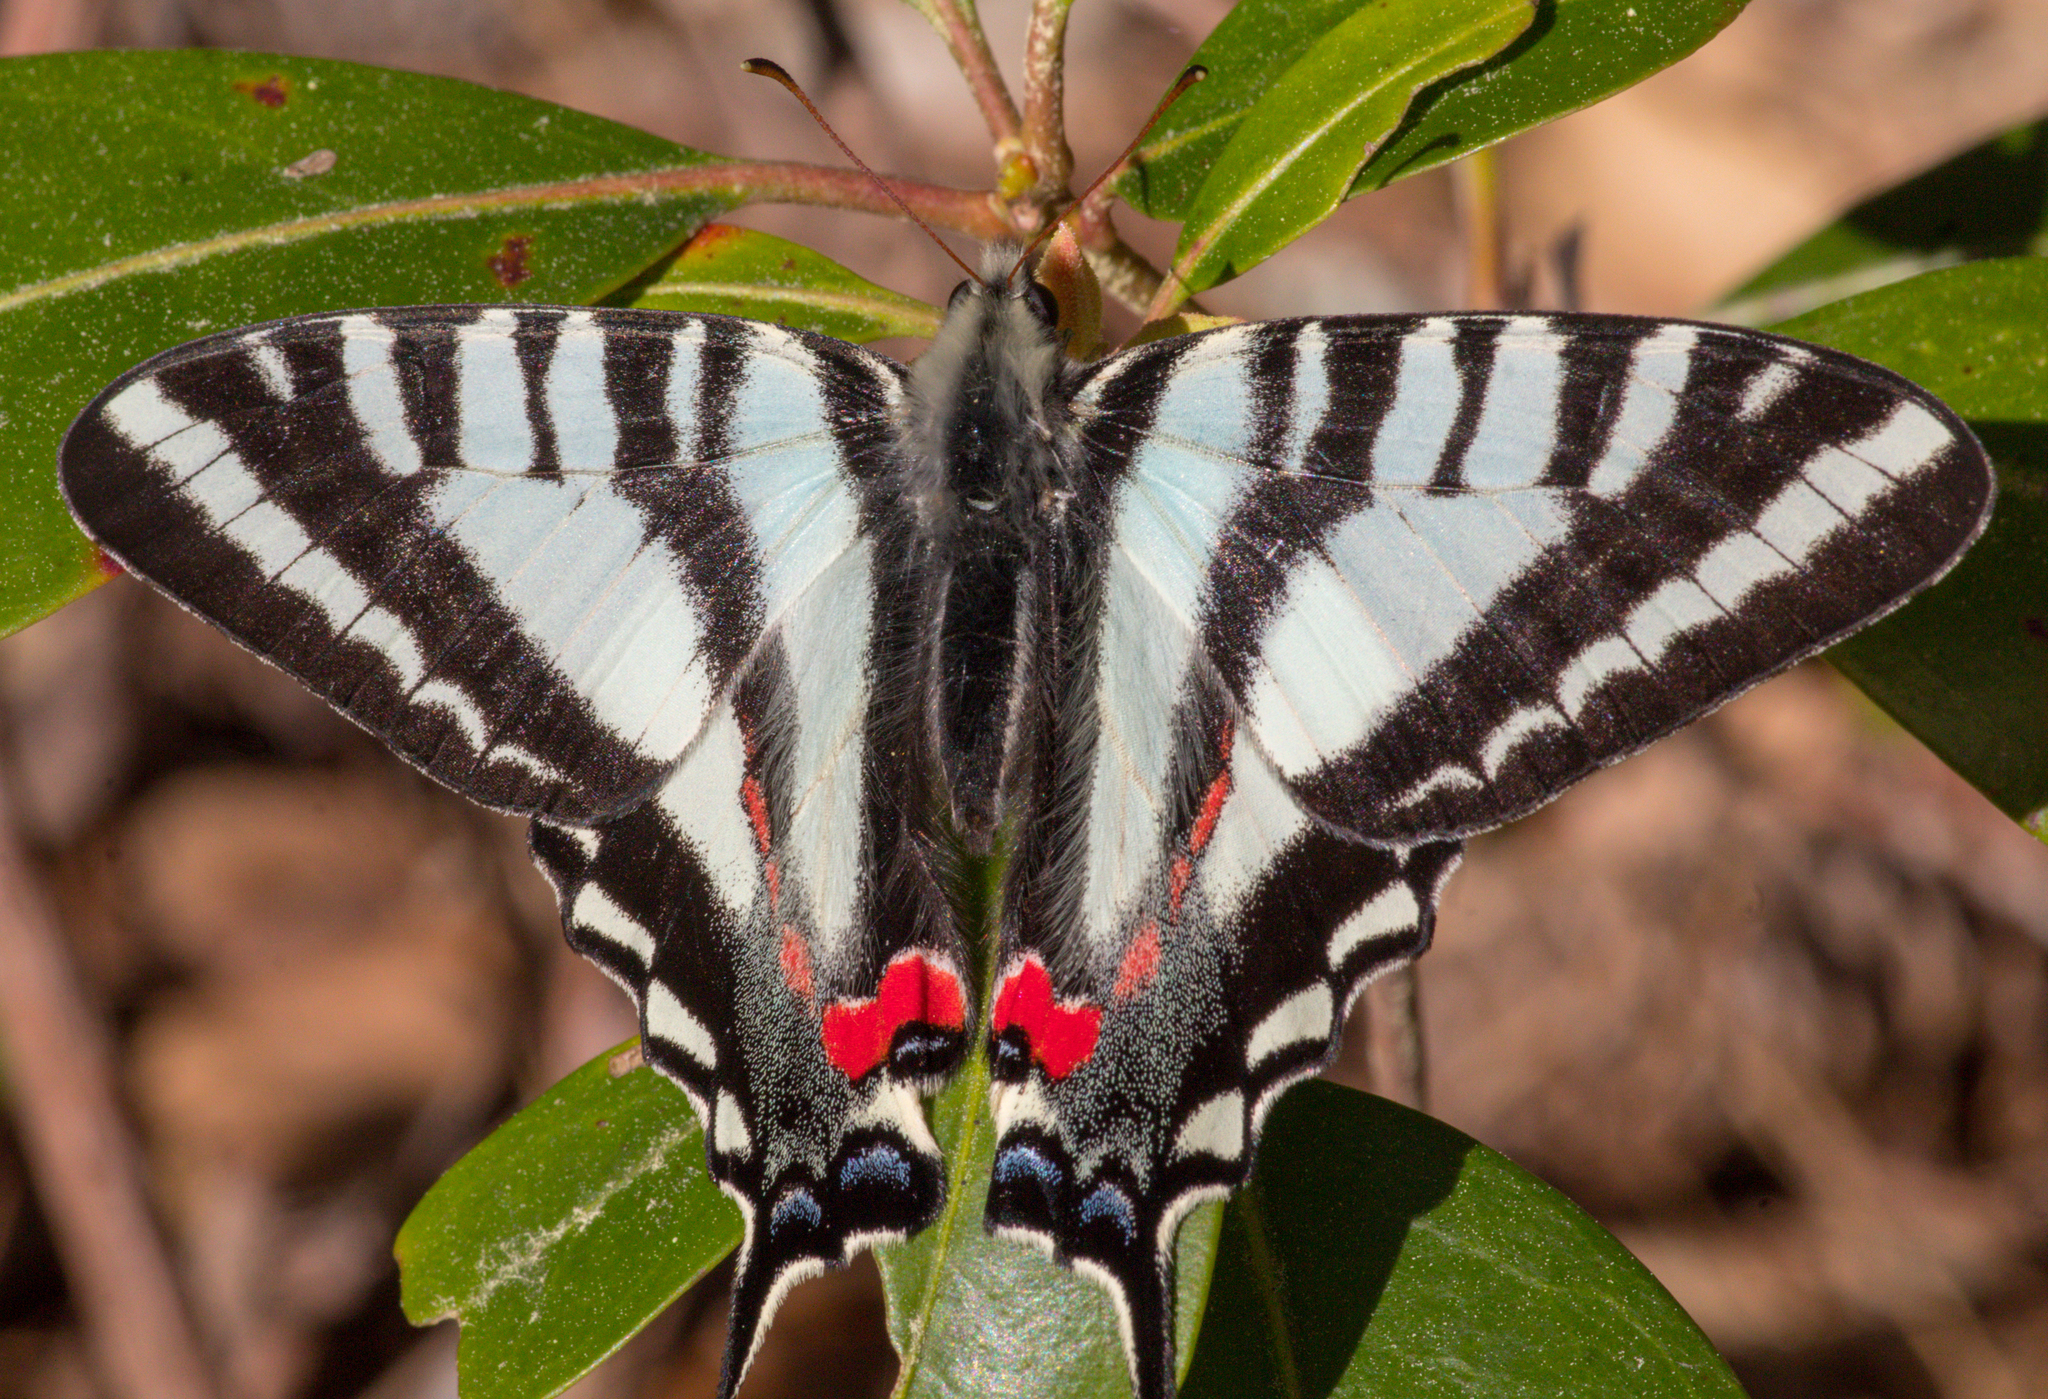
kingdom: Animalia
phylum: Arthropoda
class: Insecta
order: Lepidoptera
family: Papilionidae
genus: Protographium
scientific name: Protographium marcellus
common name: Zebra swallowtail
